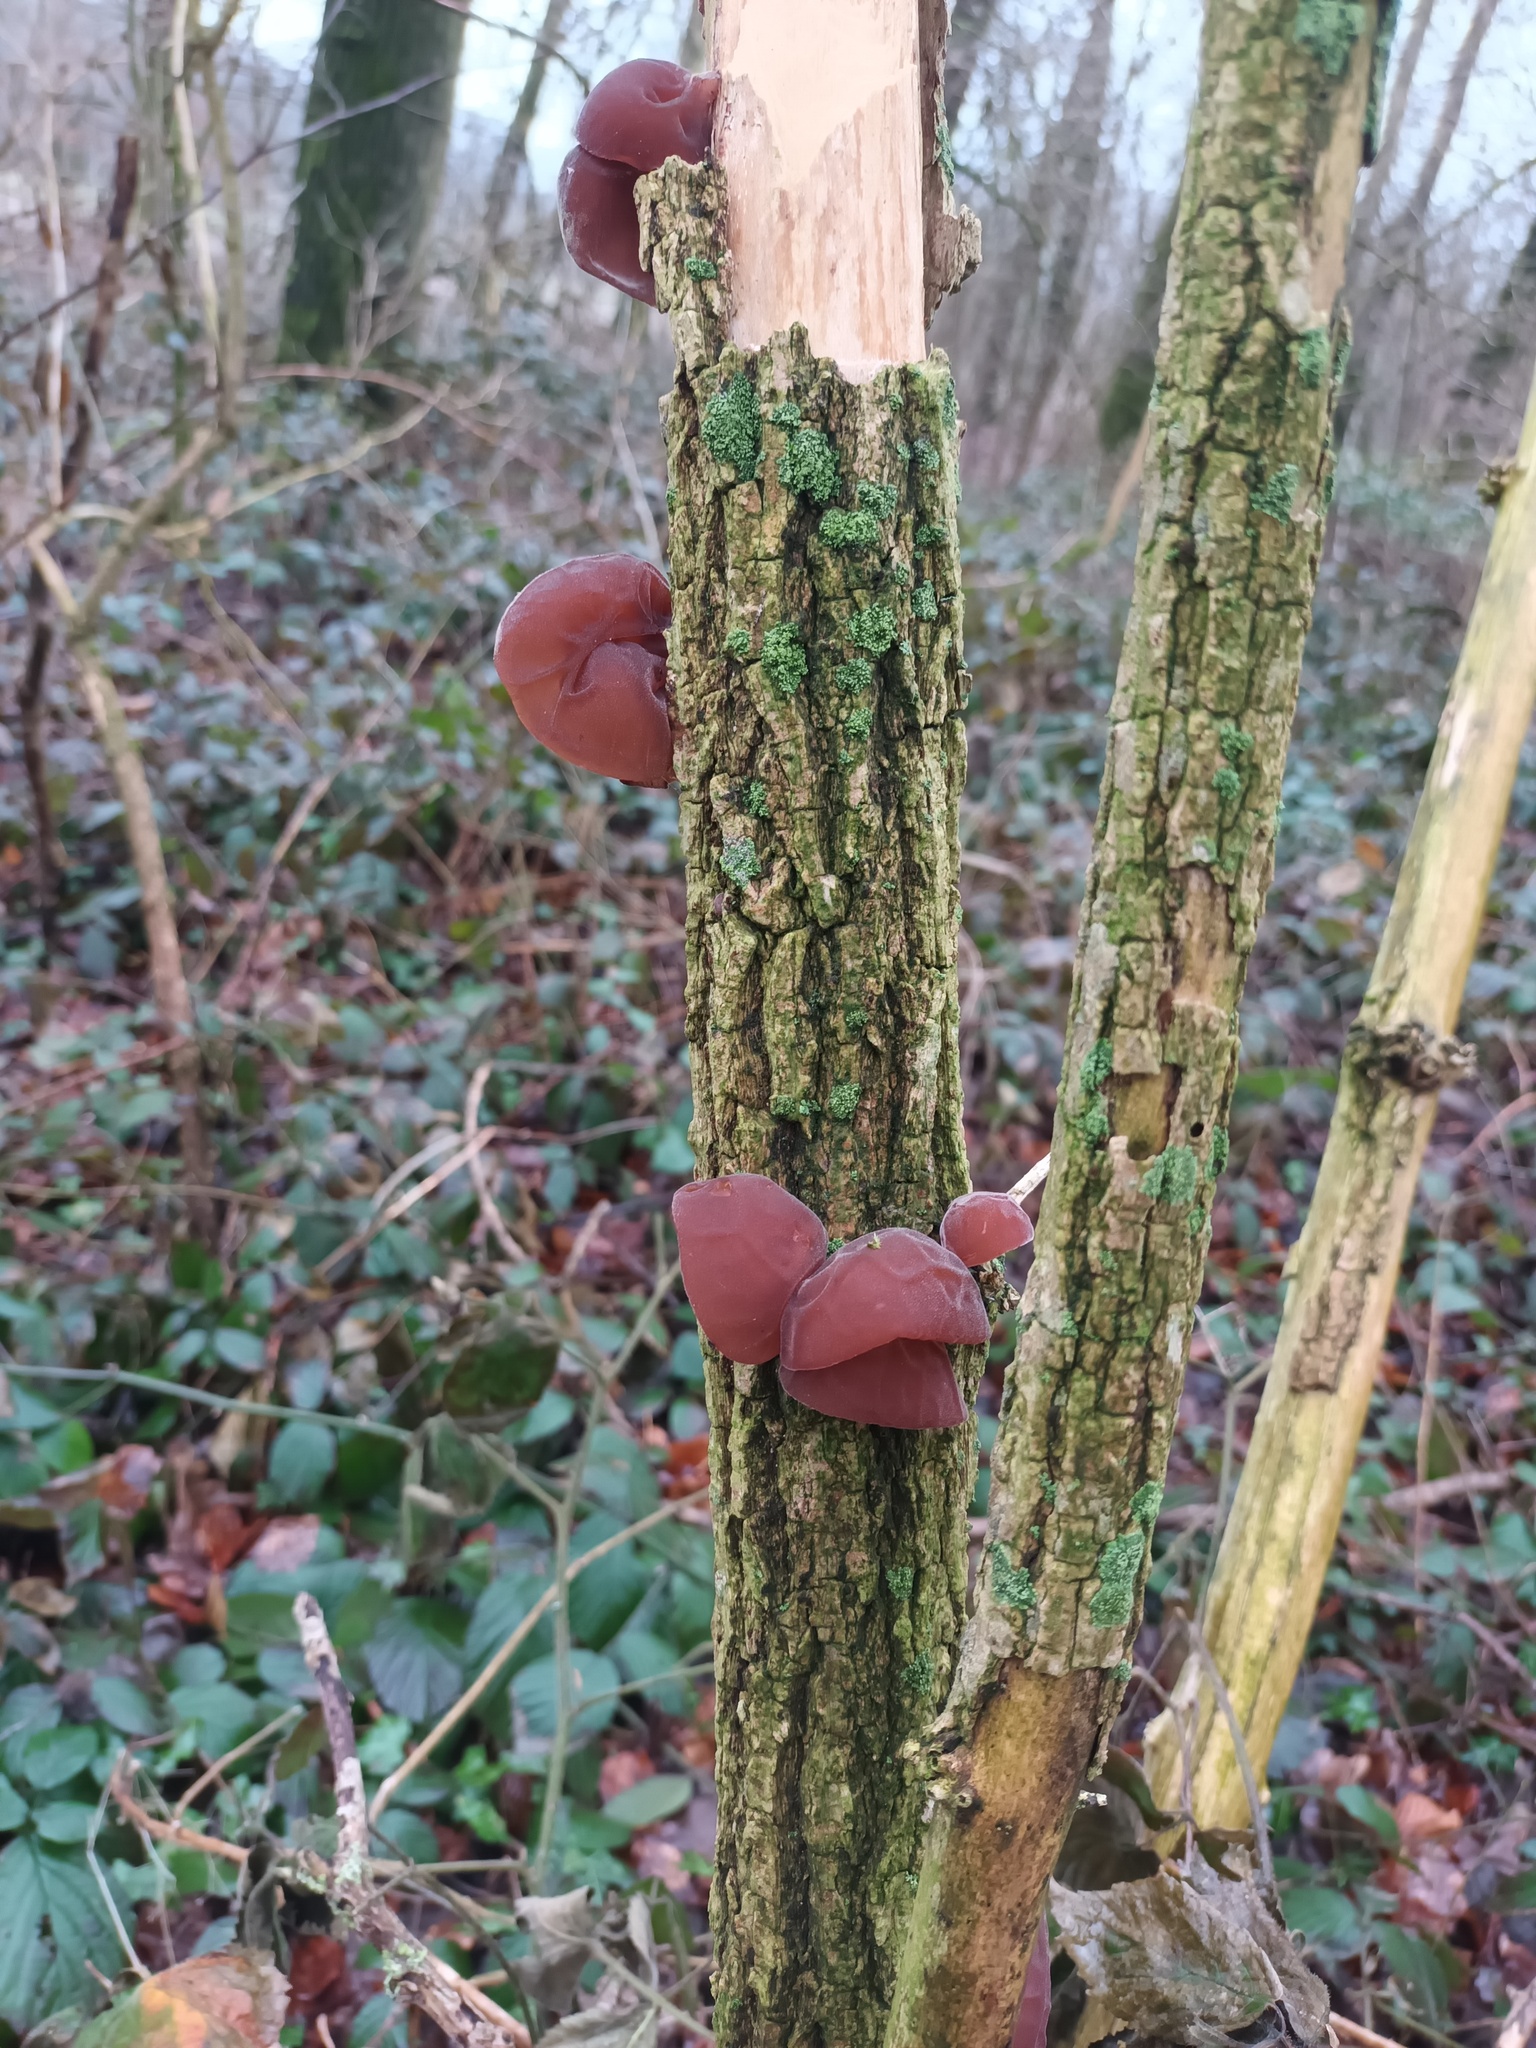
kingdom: Fungi
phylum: Basidiomycota
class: Agaricomycetes
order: Auriculariales
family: Auriculariaceae
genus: Auricularia
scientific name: Auricularia auricula-judae
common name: Jelly ear
